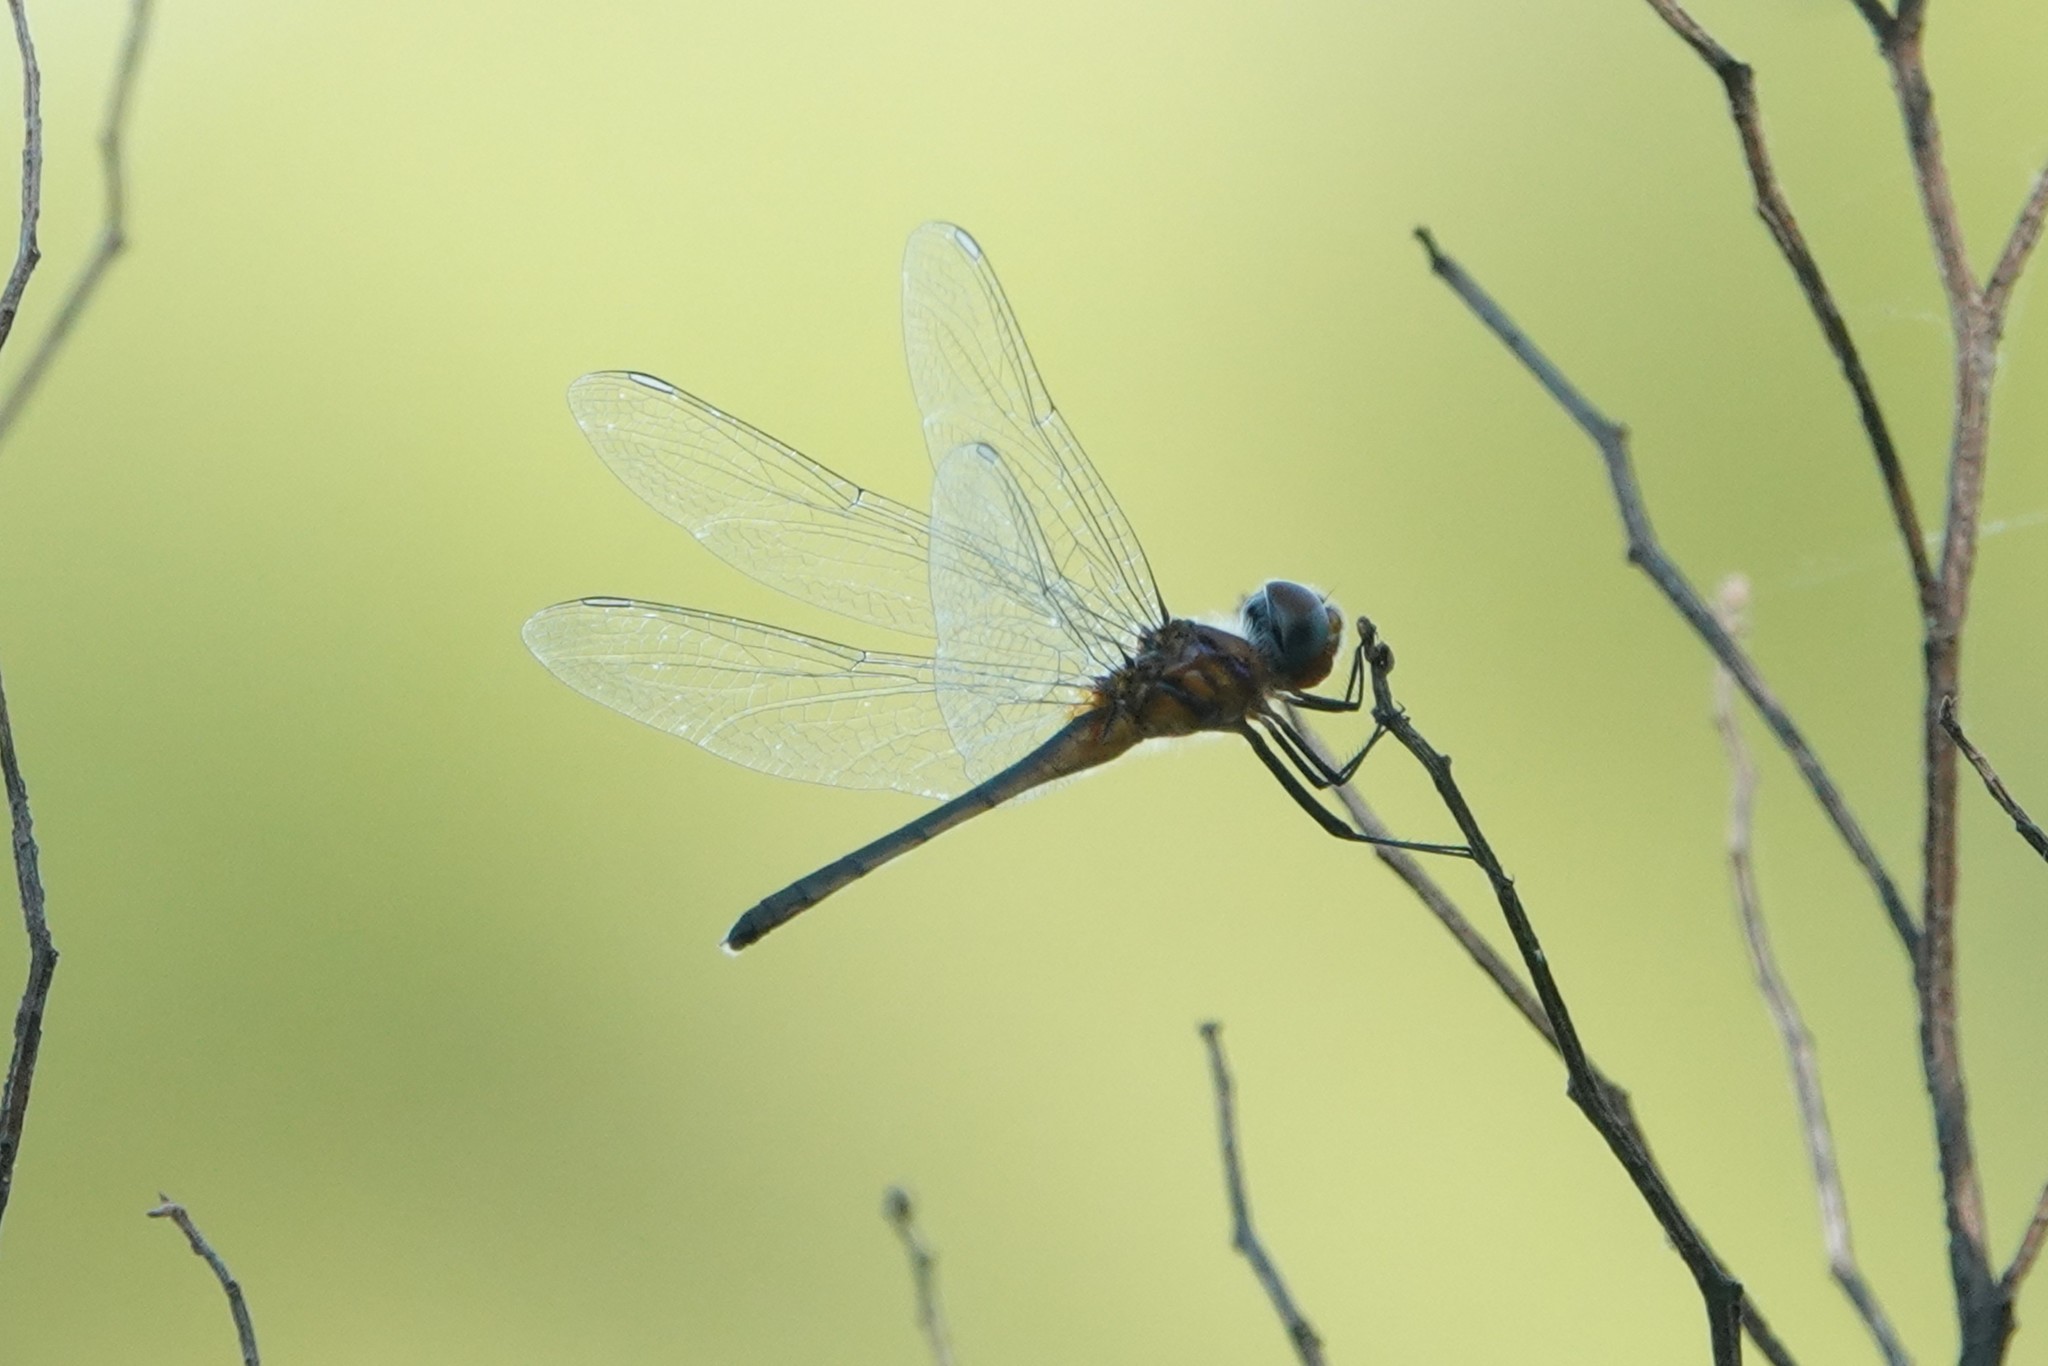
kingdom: Animalia
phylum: Arthropoda
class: Insecta
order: Odonata
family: Libellulidae
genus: Idiataphe
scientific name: Idiataphe cubensis
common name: Metallic pennant
